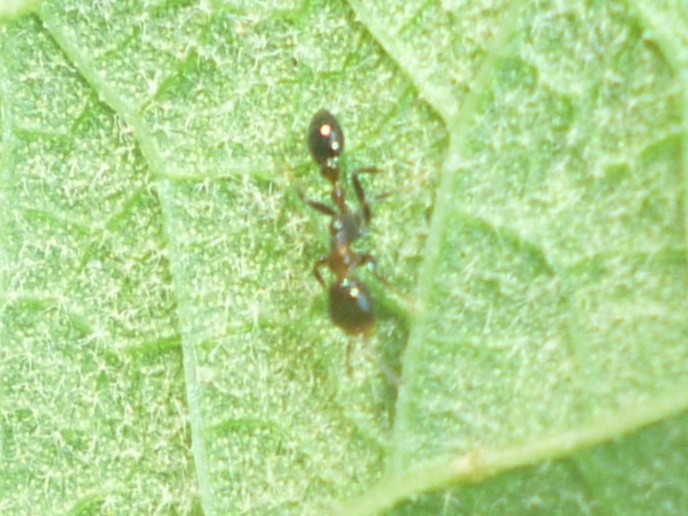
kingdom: Animalia
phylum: Arthropoda
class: Insecta
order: Hymenoptera
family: Formicidae
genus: Pseudomyrmex
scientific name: Pseudomyrmex ejectus
